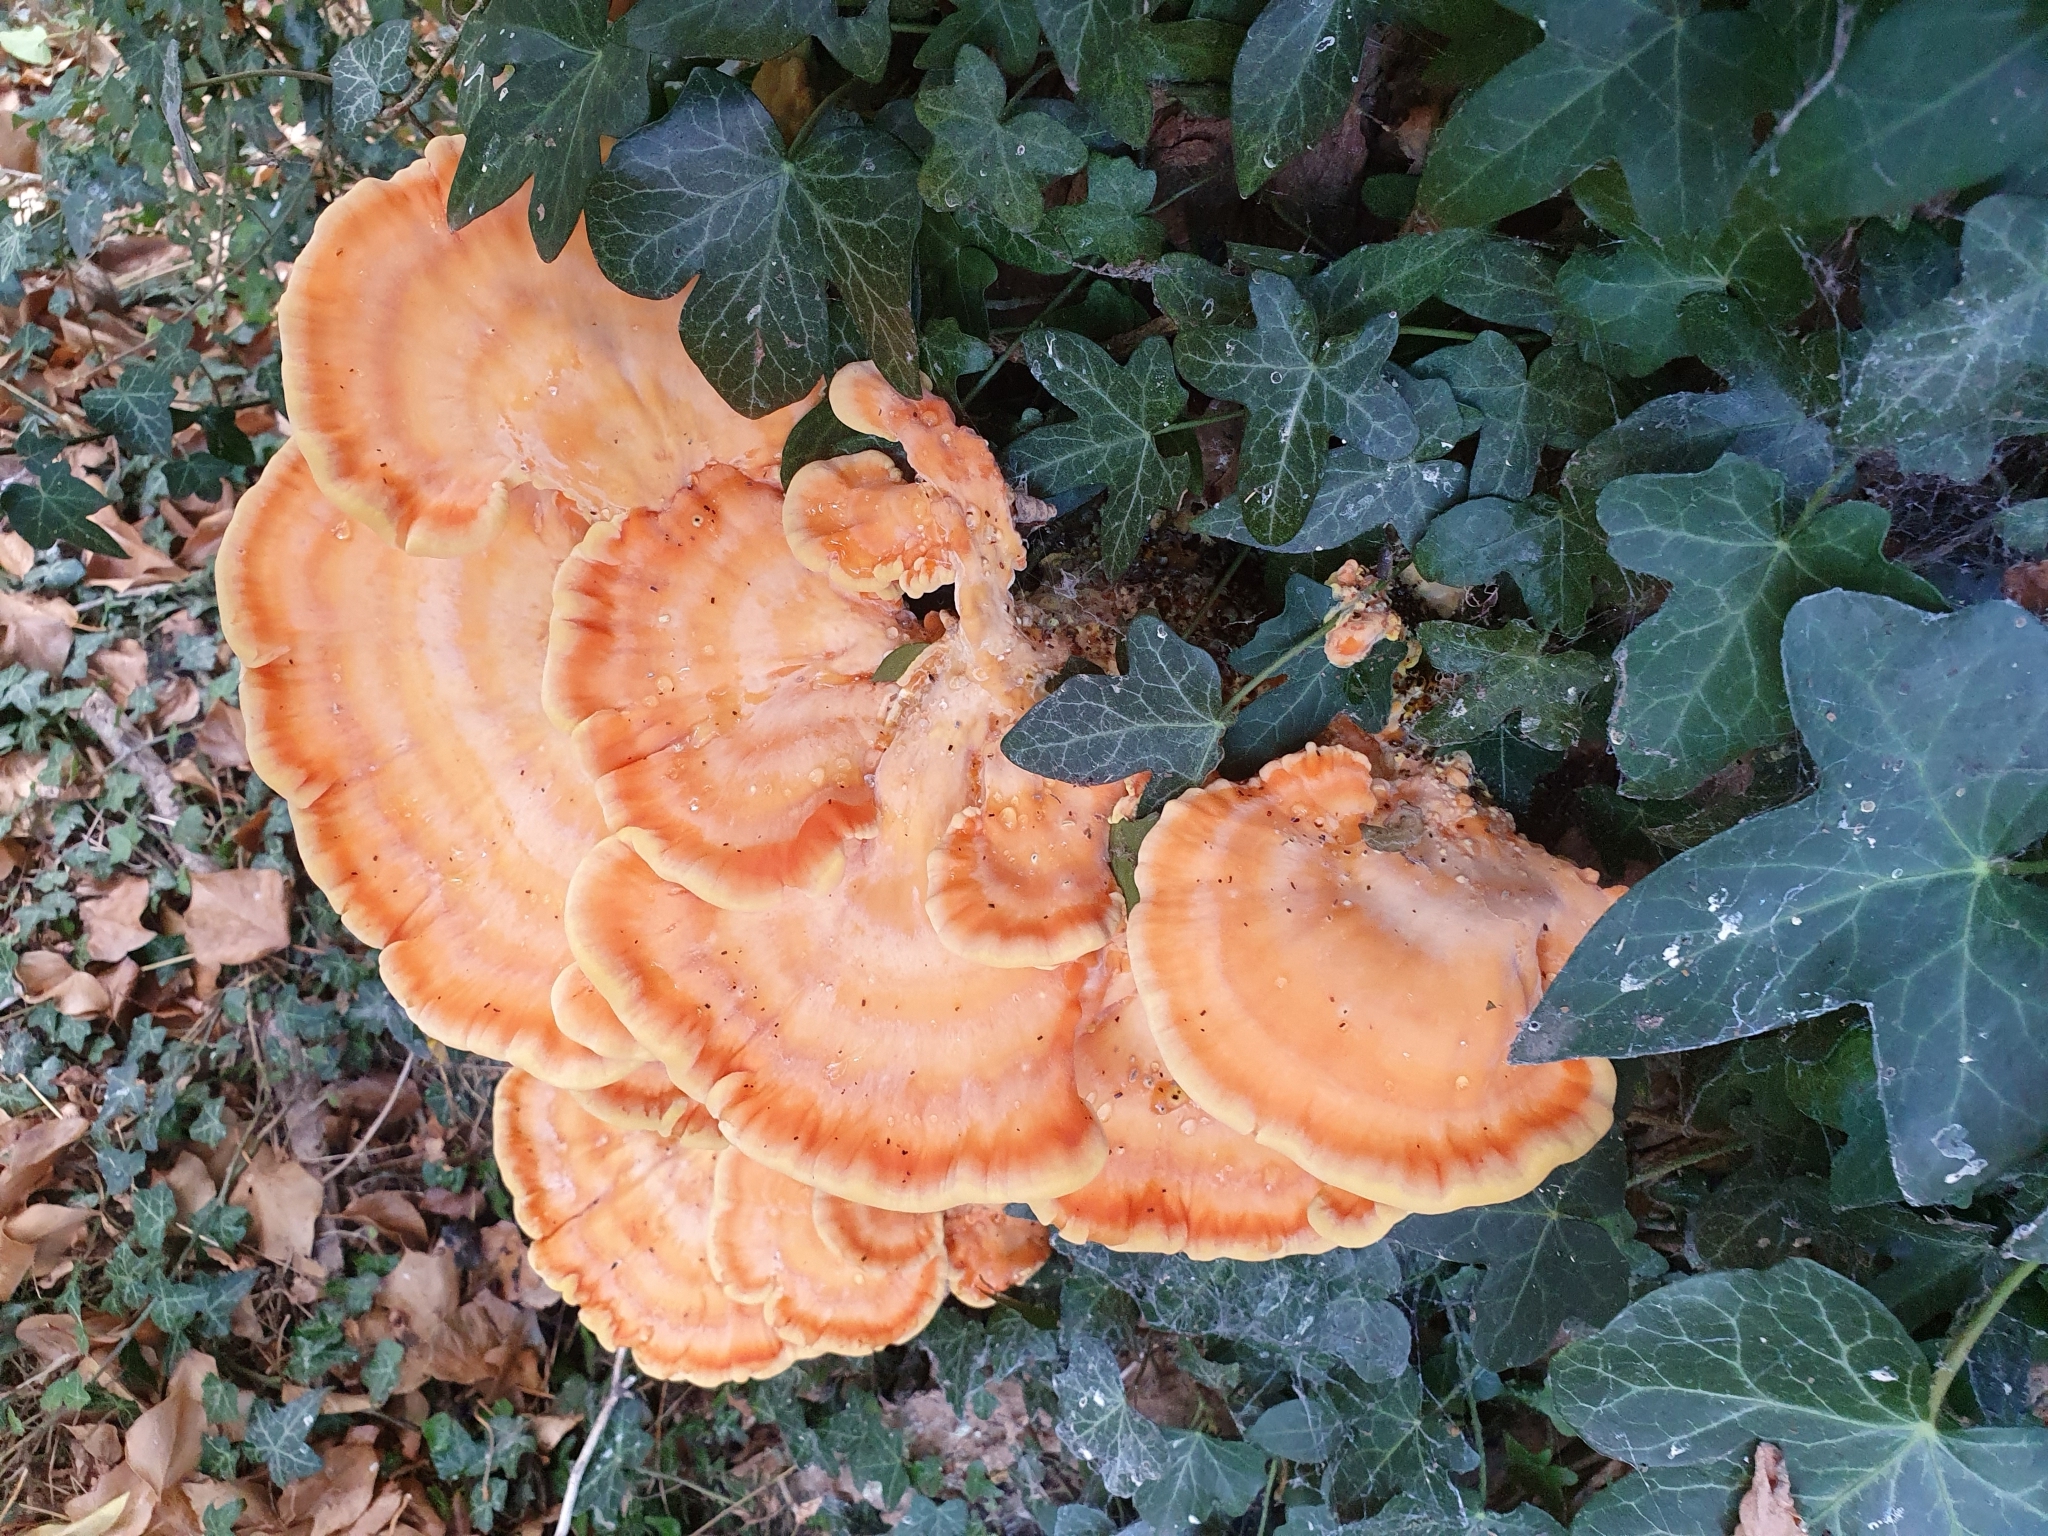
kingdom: Fungi
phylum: Basidiomycota
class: Agaricomycetes
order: Polyporales
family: Laetiporaceae
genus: Laetiporus
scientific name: Laetiporus sulphureus
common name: Chicken of the woods
